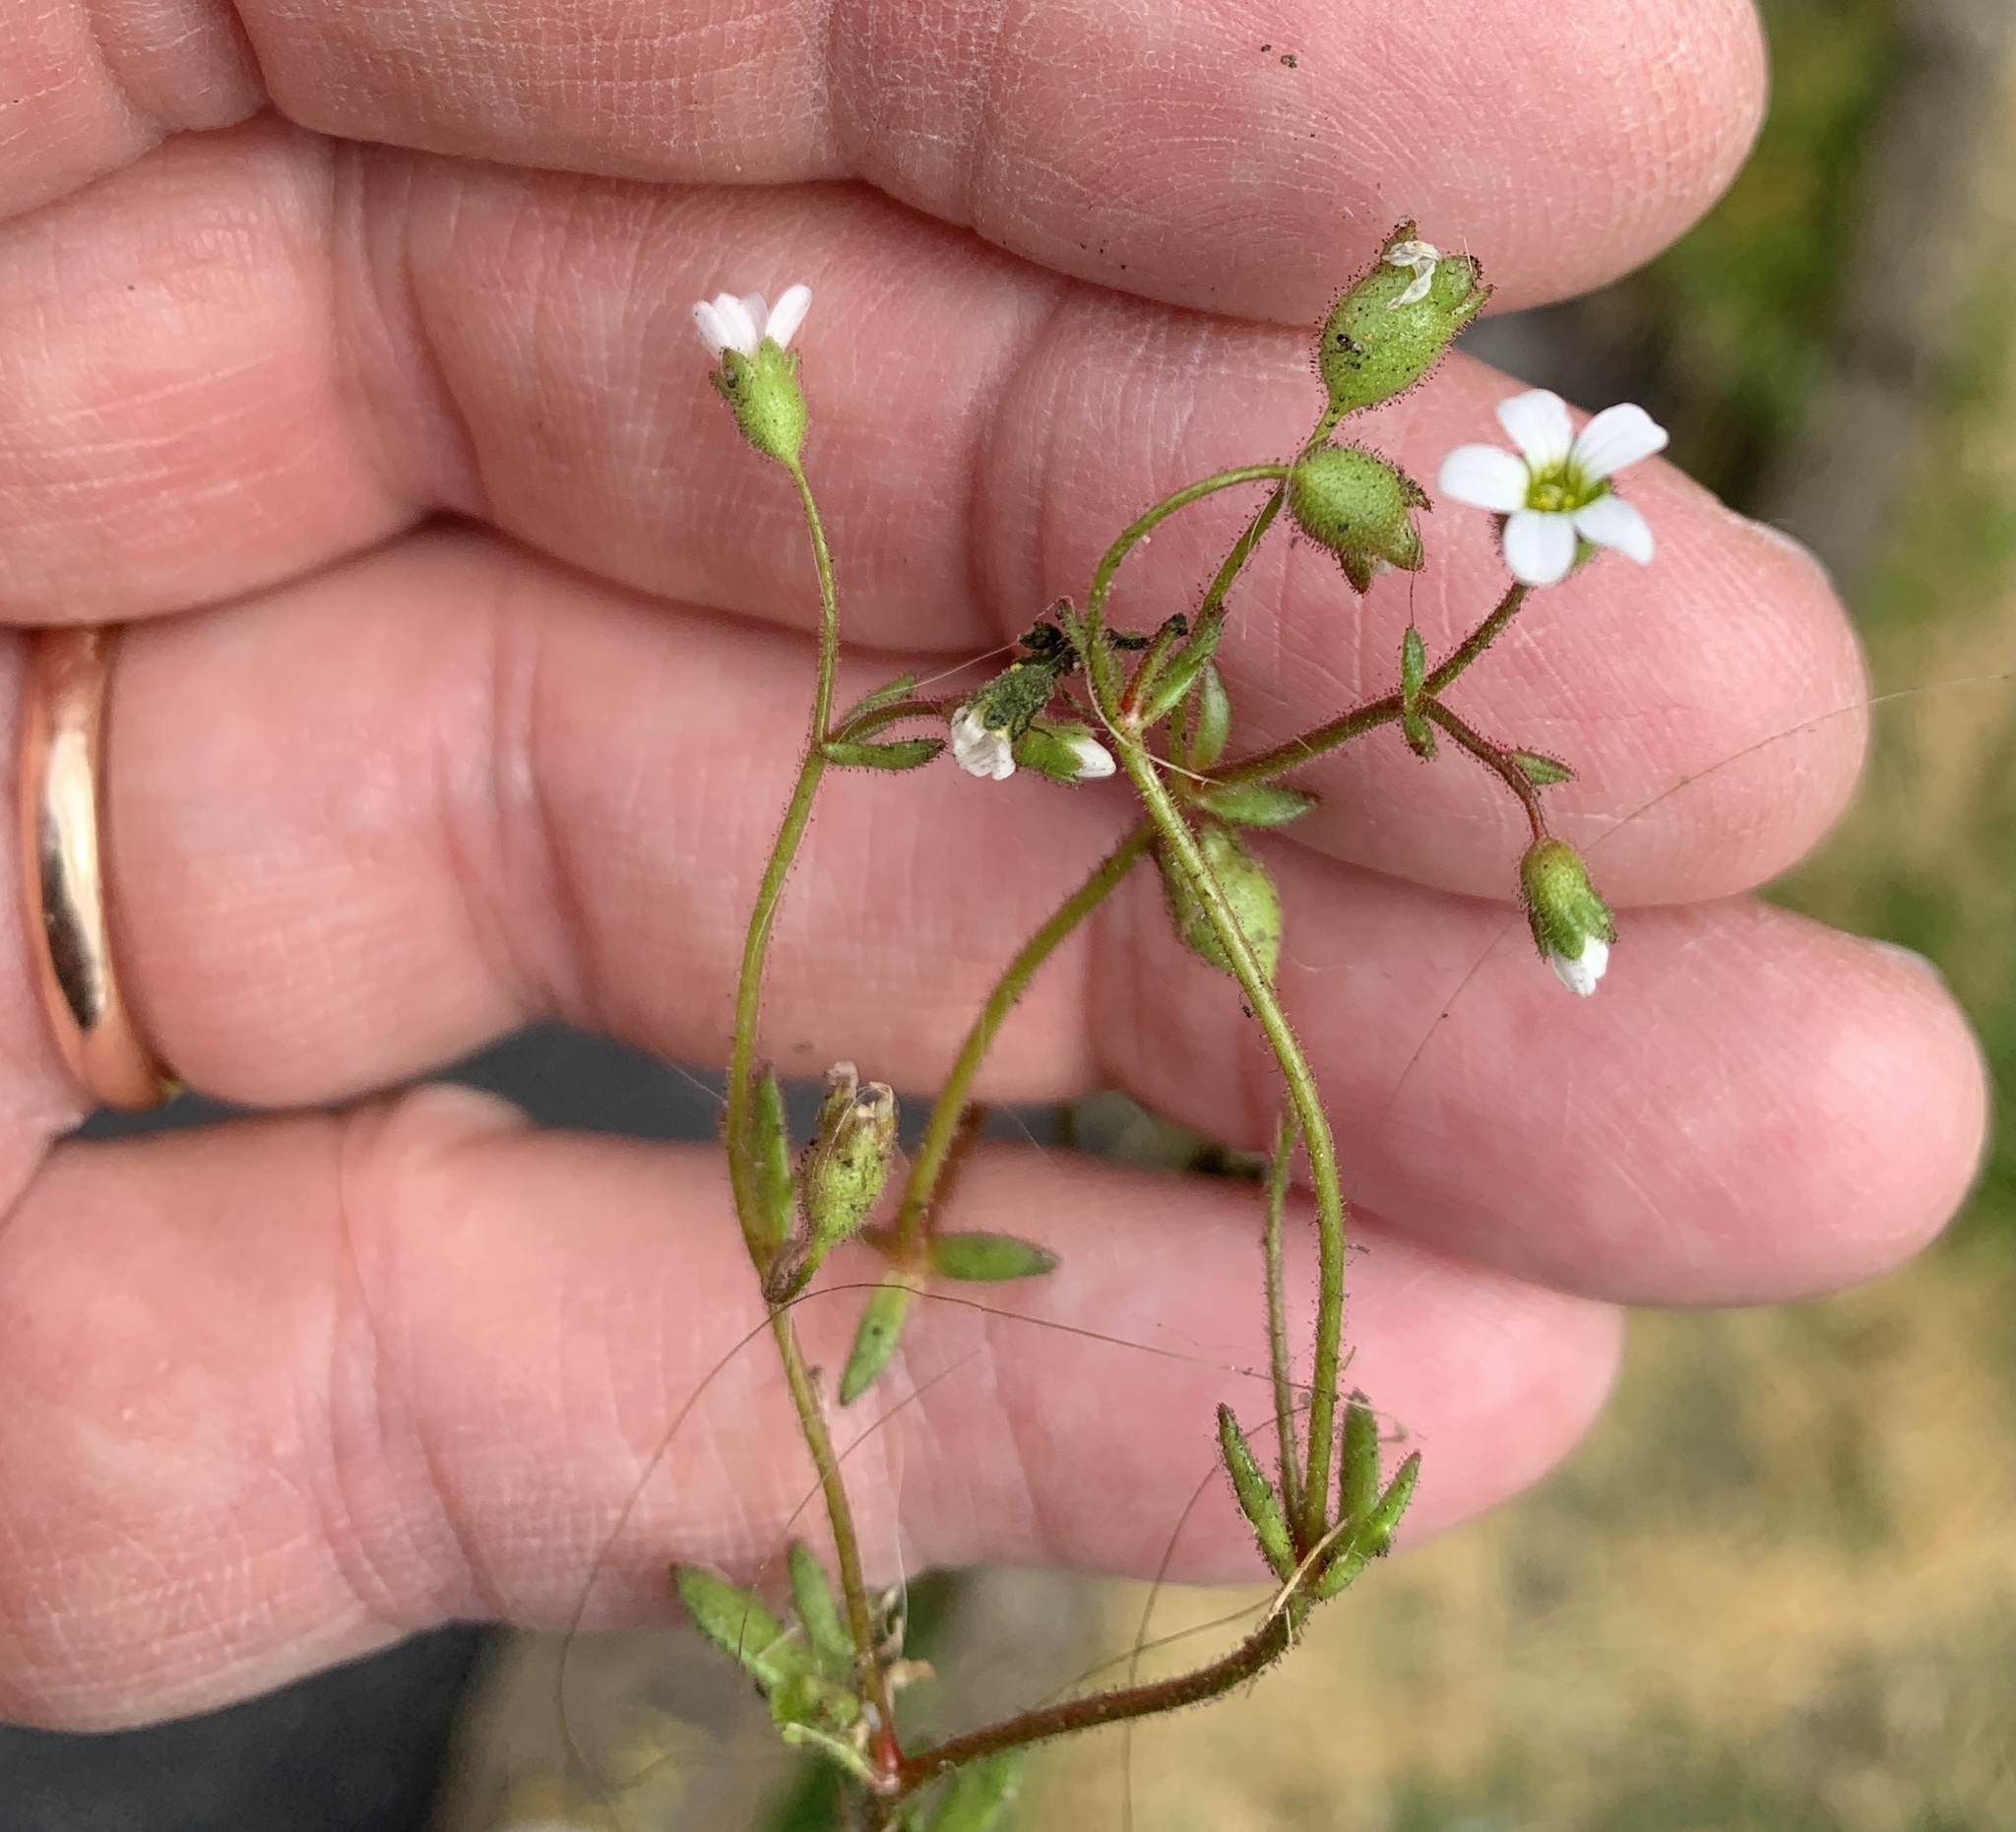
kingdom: Plantae
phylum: Tracheophyta
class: Magnoliopsida
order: Saxifragales
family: Saxifragaceae
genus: Saxifraga
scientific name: Saxifraga tridactylites
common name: Rue-leaved saxifrage
